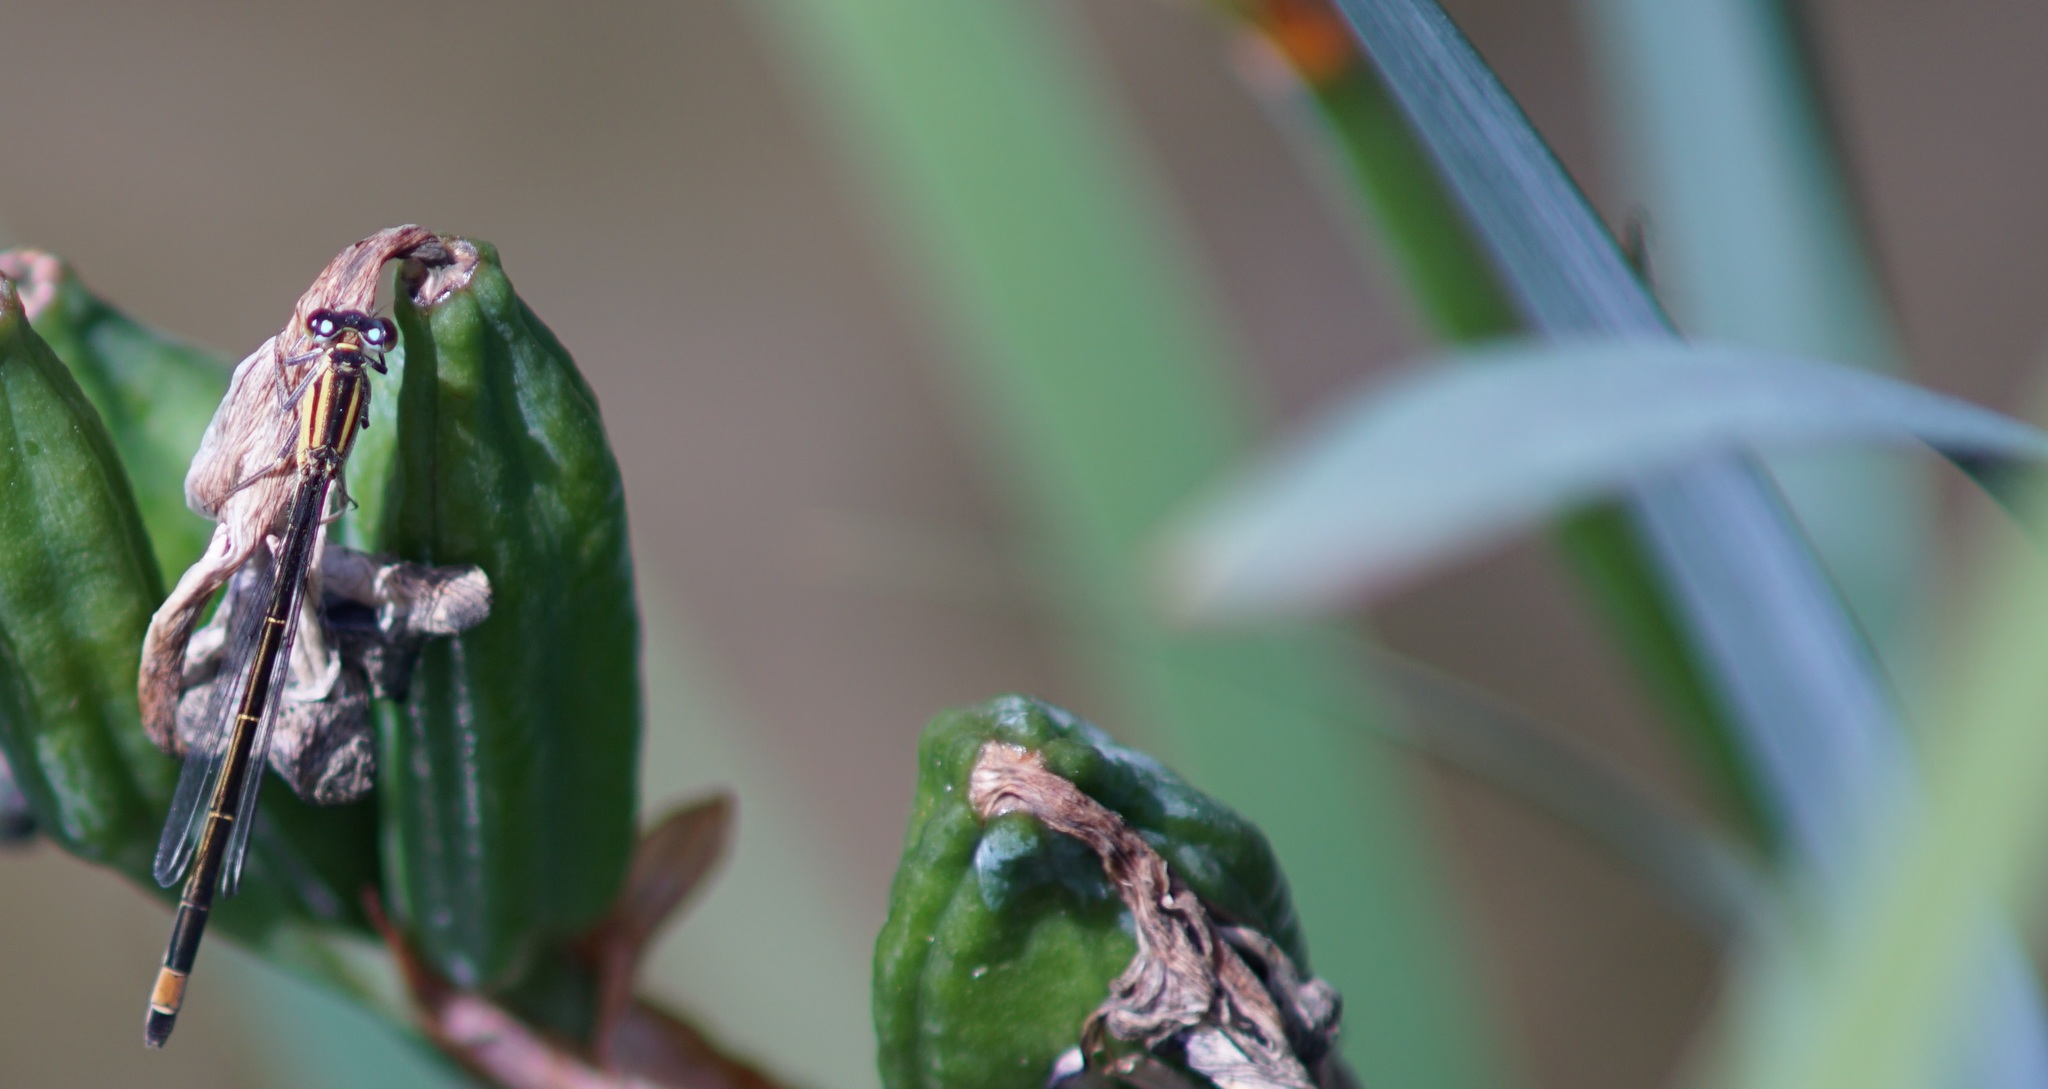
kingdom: Animalia
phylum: Arthropoda
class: Insecta
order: Odonata
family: Coenagrionidae
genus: Ischnura
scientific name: Ischnura elegans
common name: Blue-tailed damselfly
